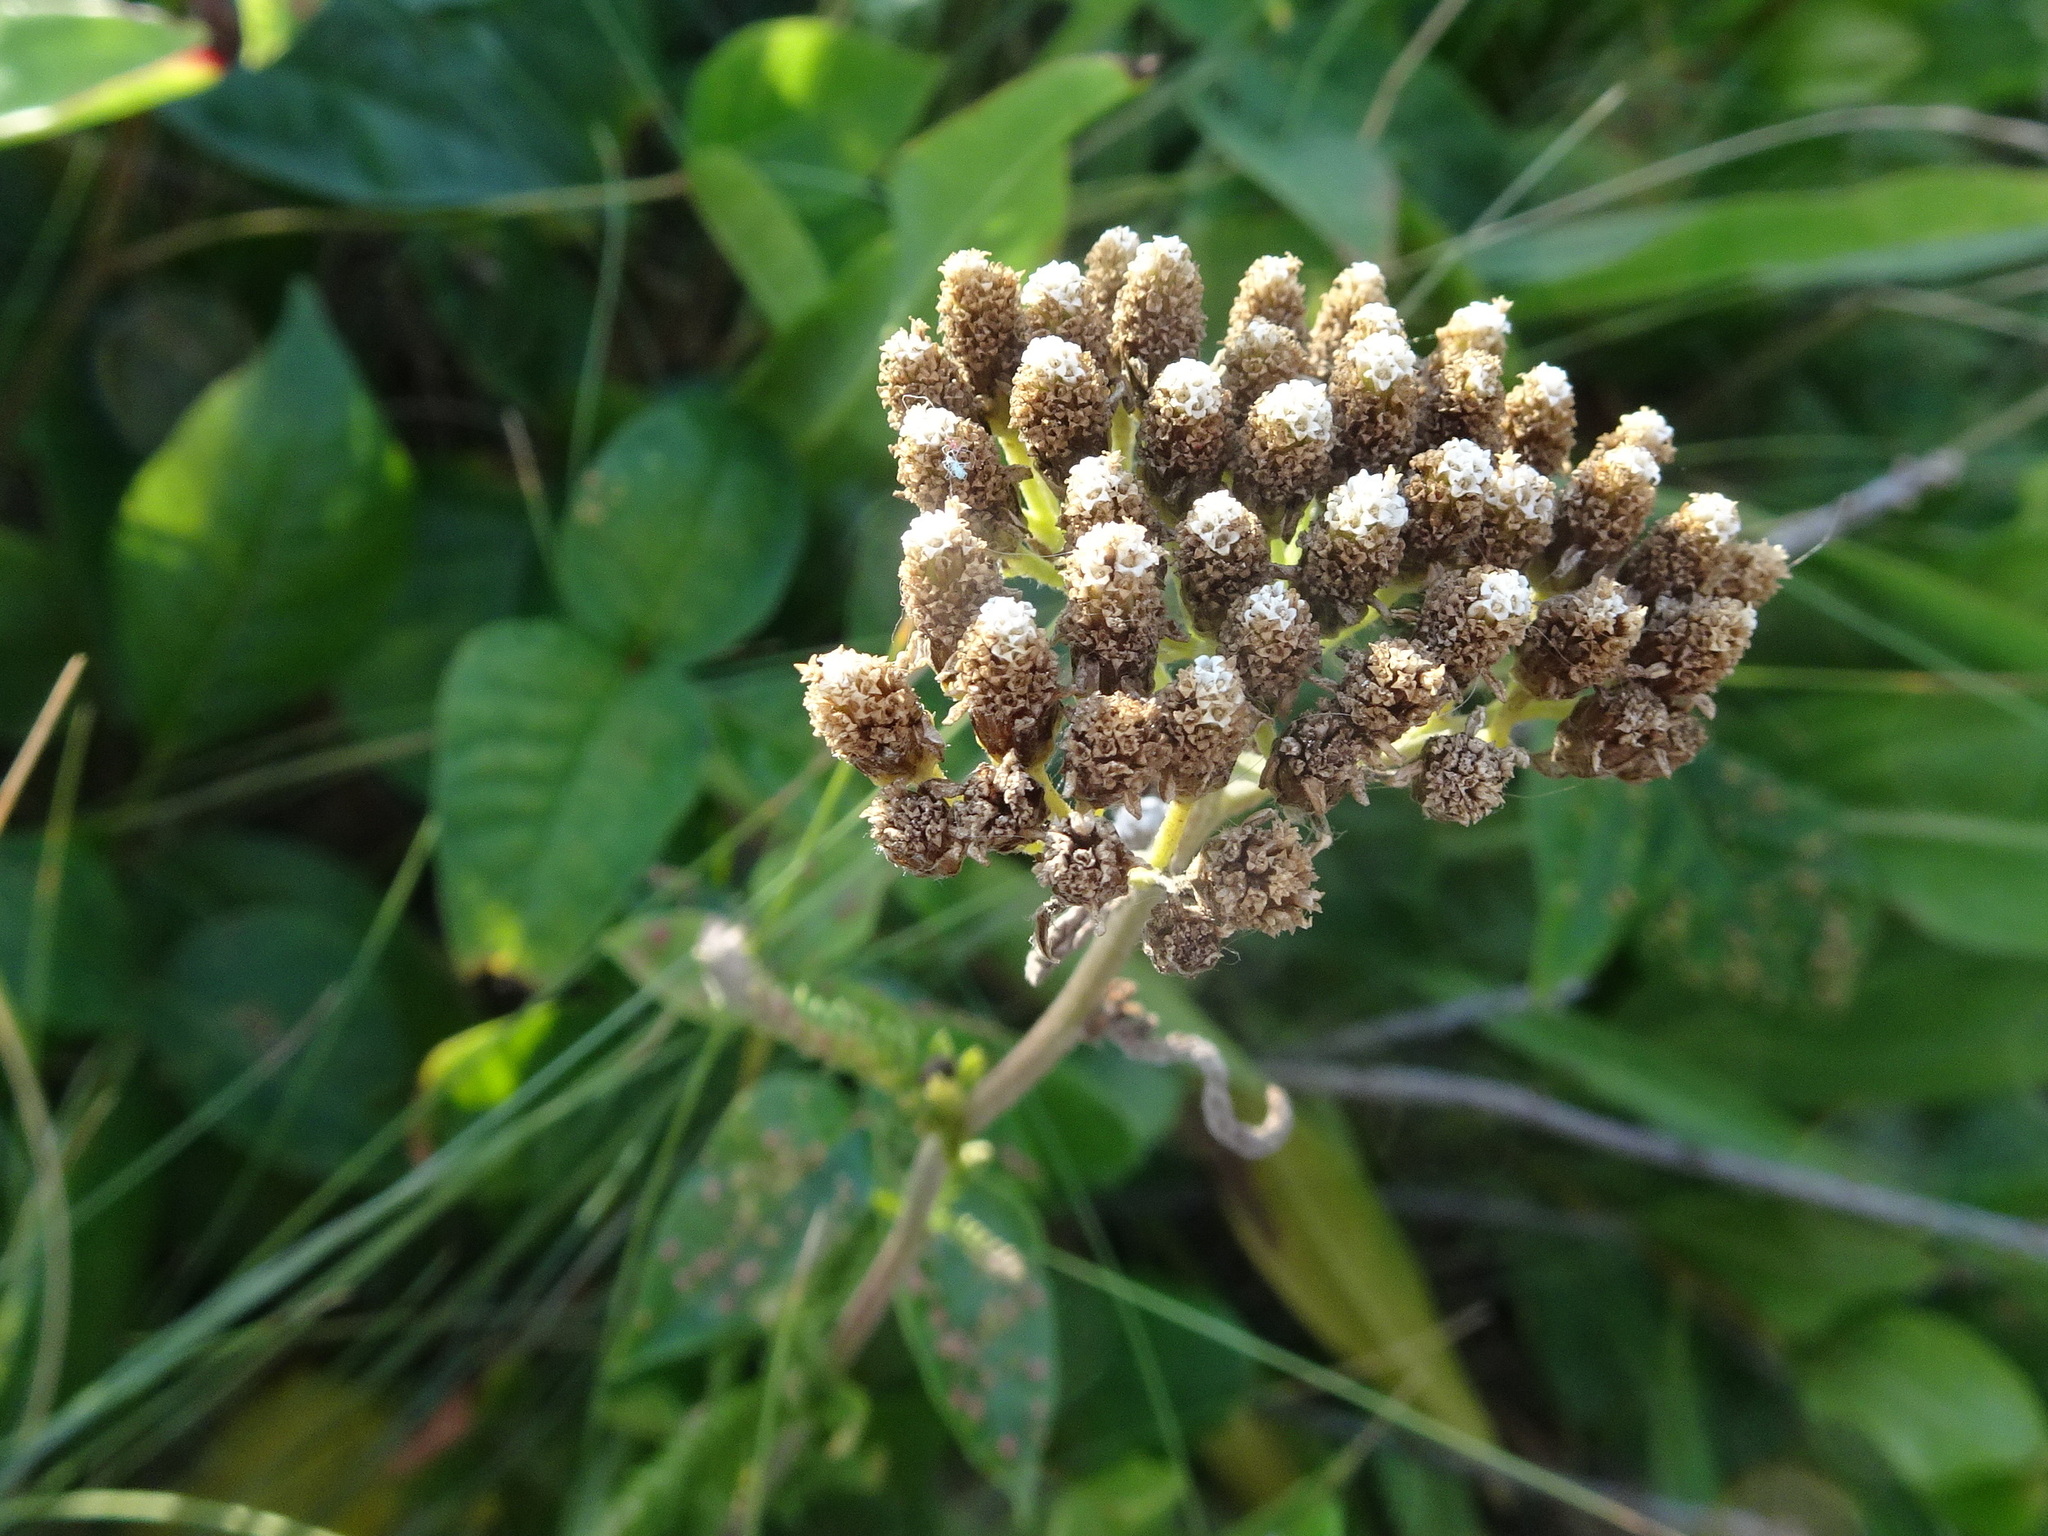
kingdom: Plantae
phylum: Tracheophyta
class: Magnoliopsida
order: Asterales
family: Asteraceae
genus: Achillea
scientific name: Achillea millefolium
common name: Yarrow
